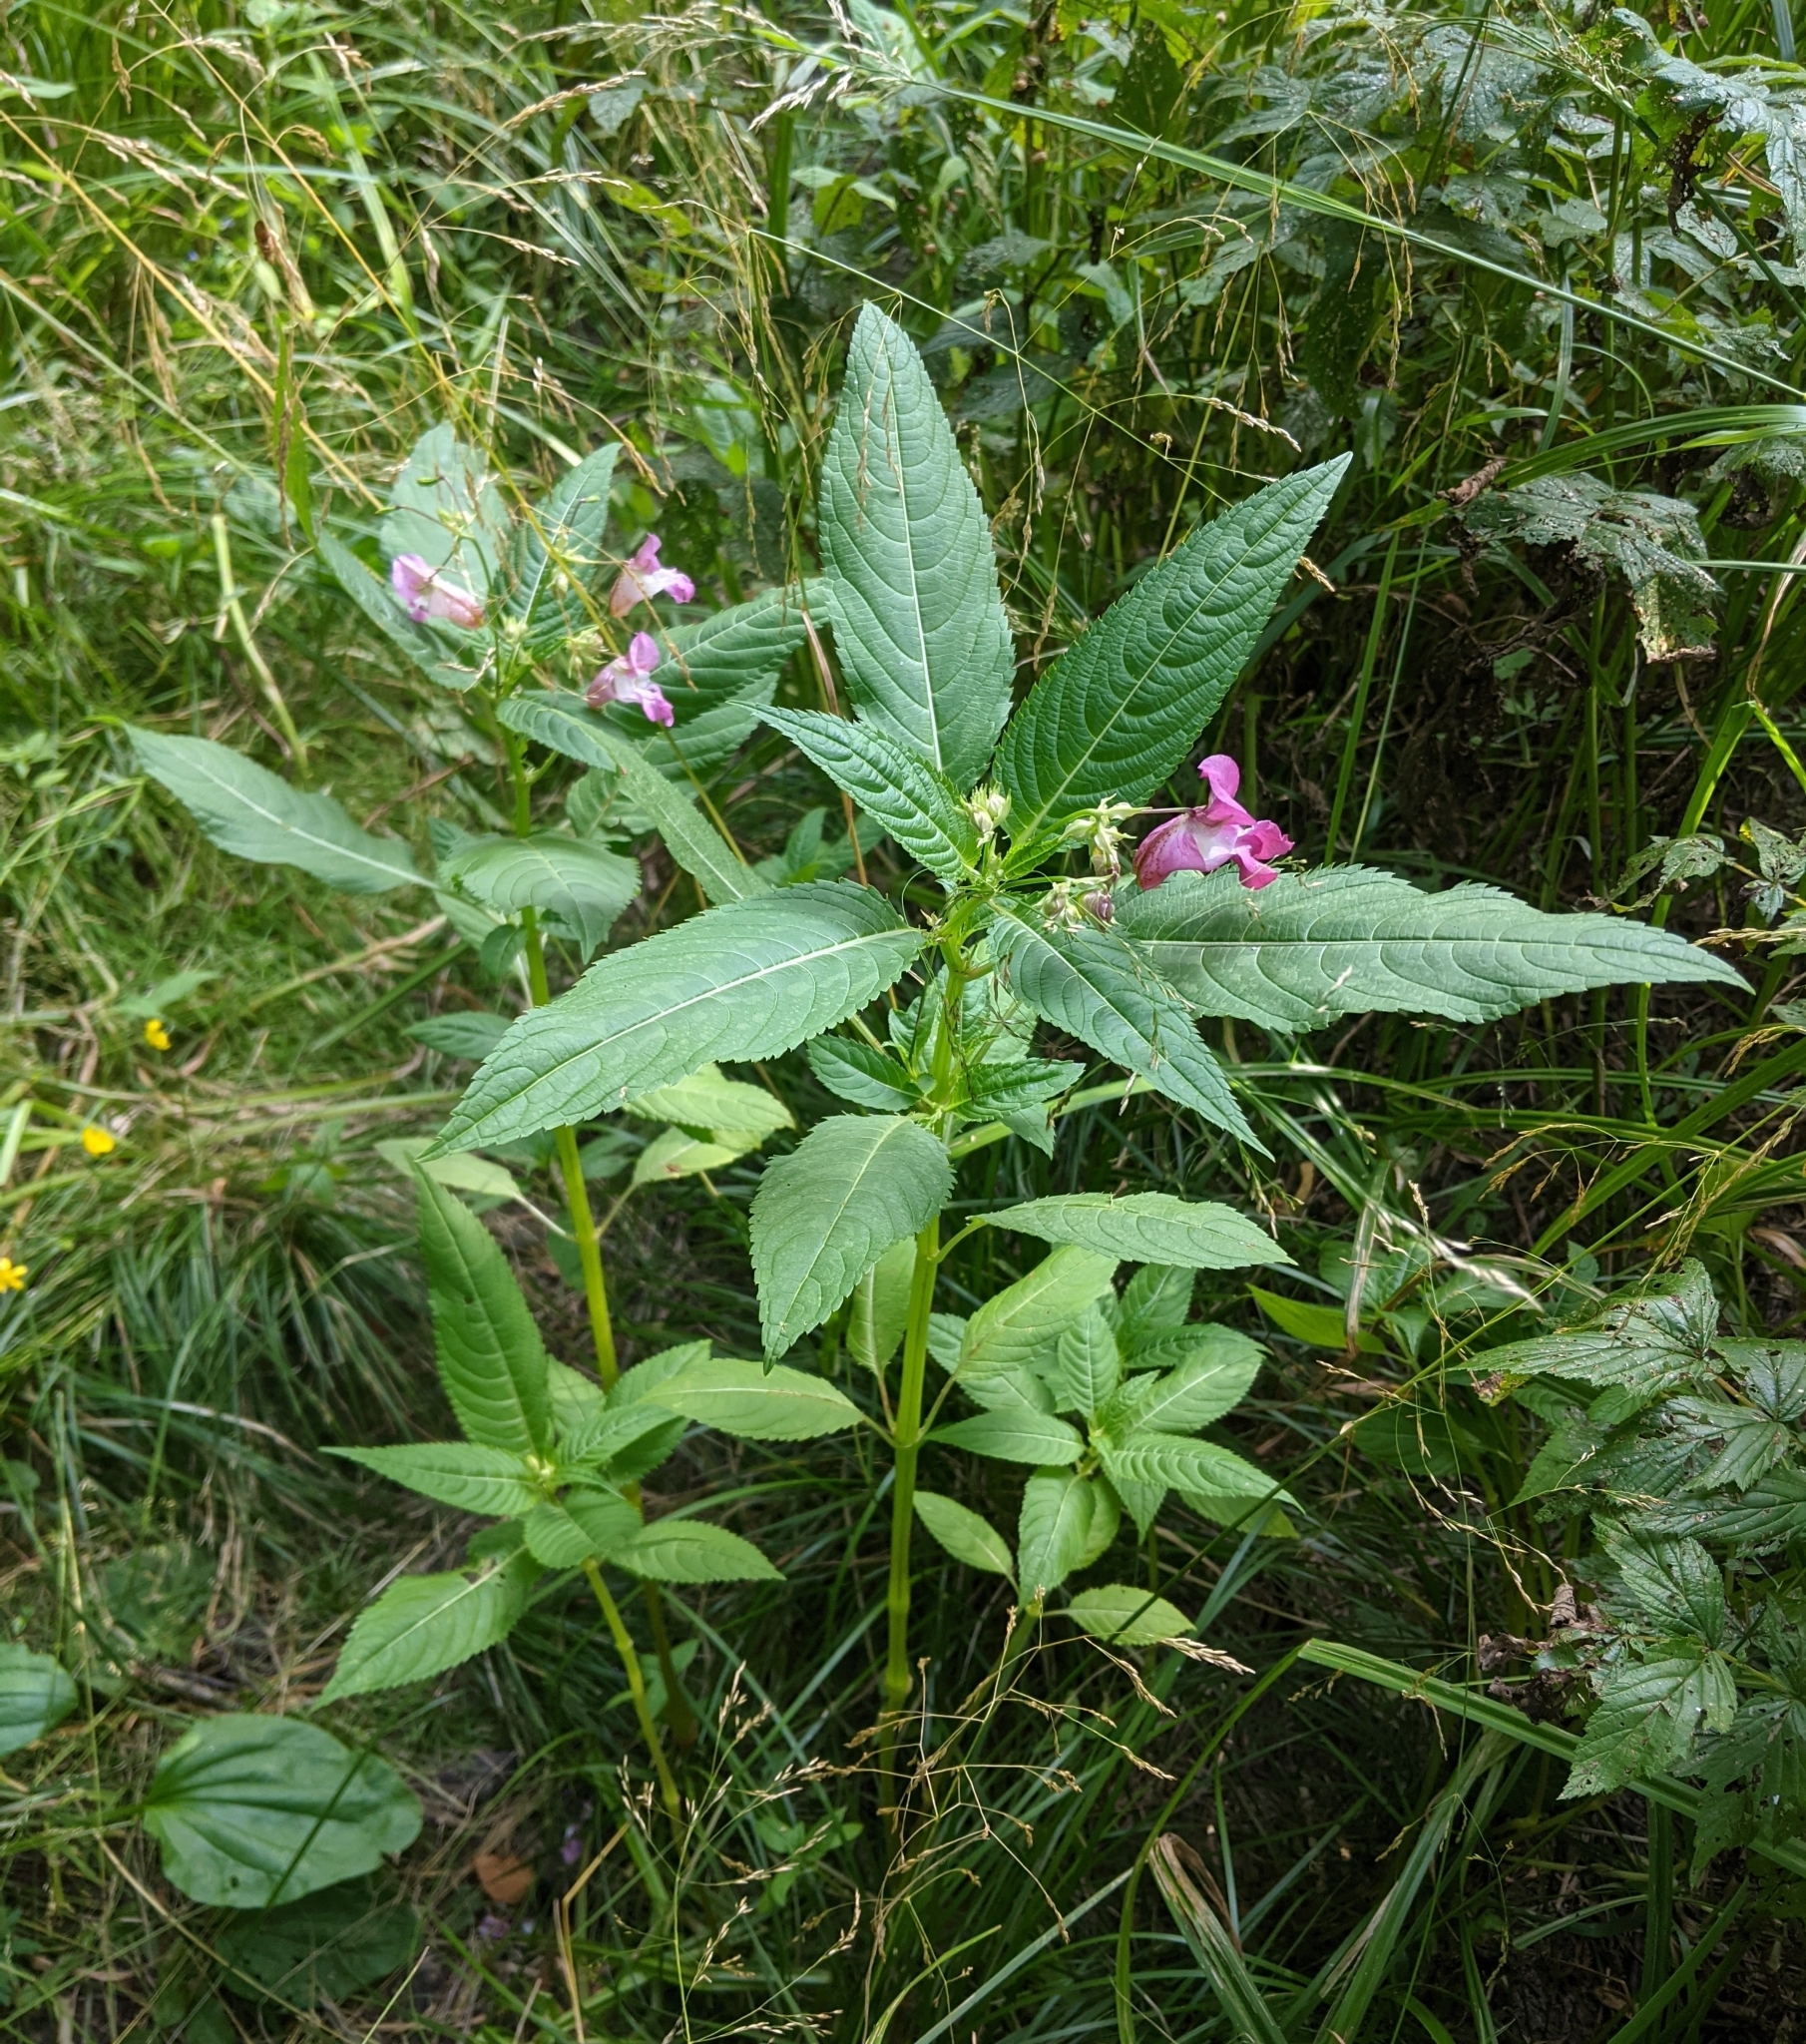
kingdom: Plantae
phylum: Tracheophyta
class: Magnoliopsida
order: Ericales
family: Balsaminaceae
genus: Impatiens
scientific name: Impatiens glandulifera
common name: Himalayan balsam
